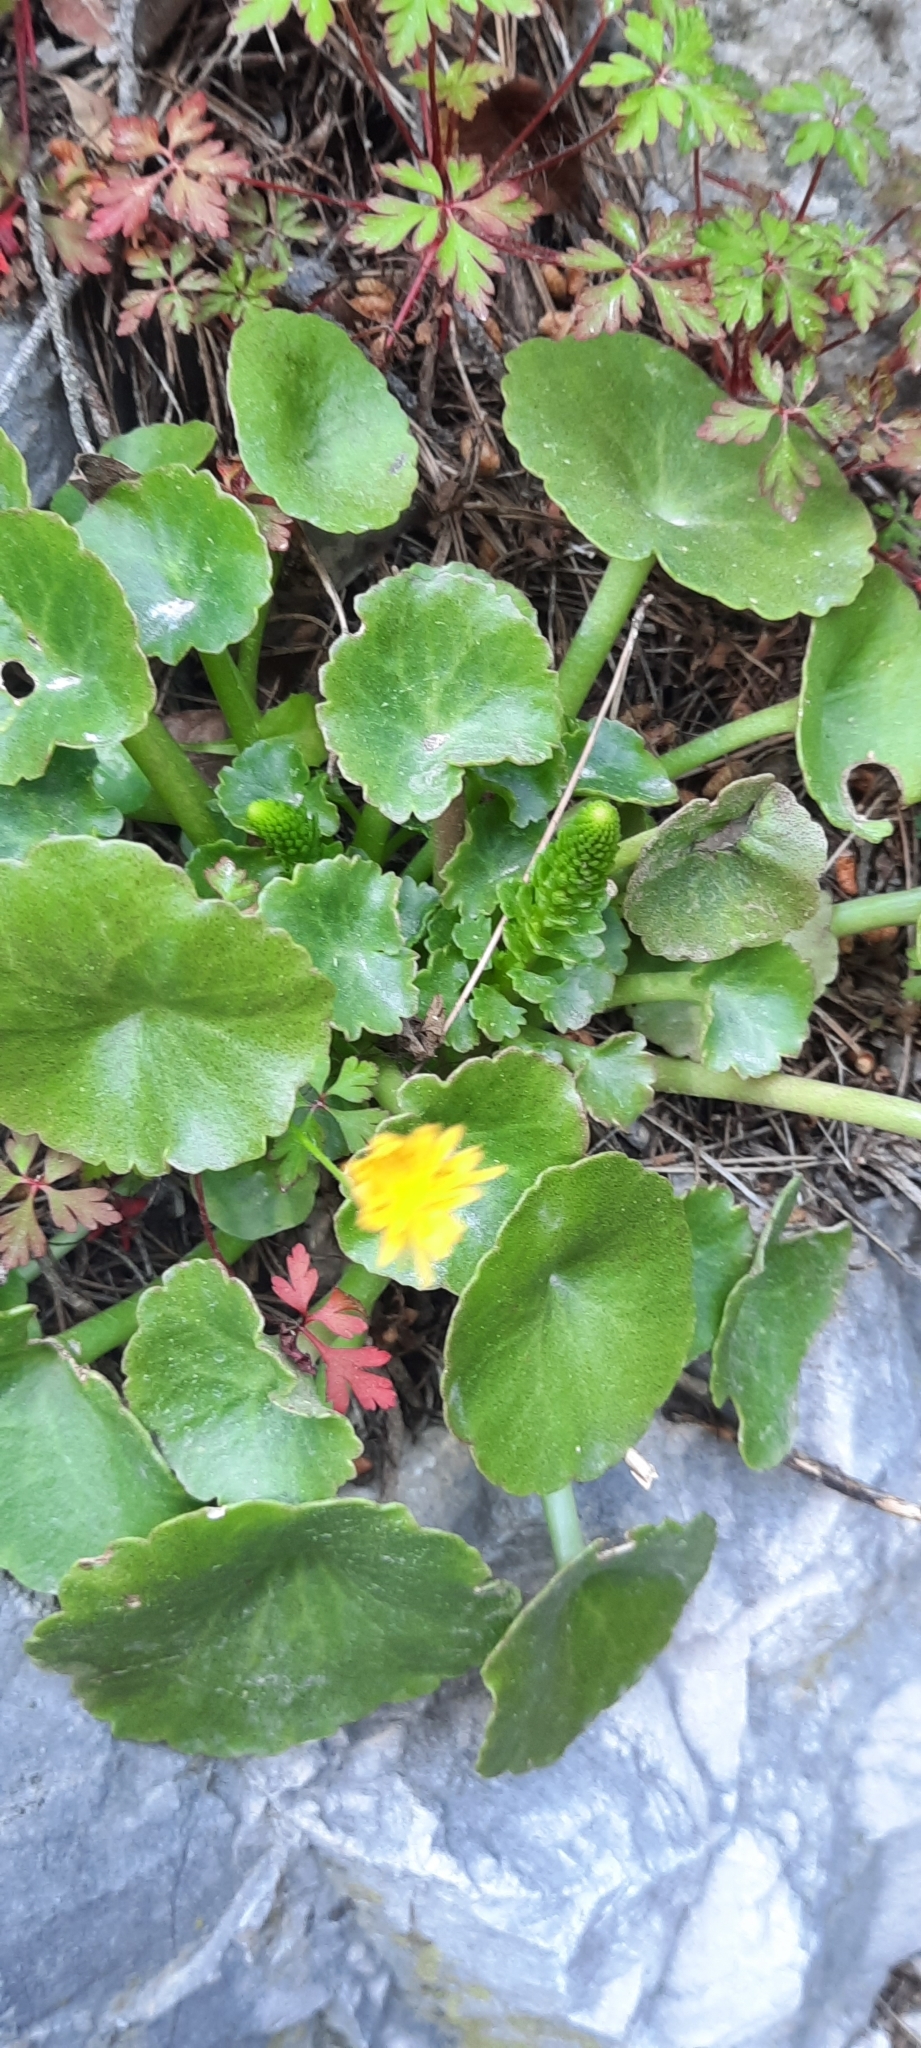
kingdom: Plantae
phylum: Tracheophyta
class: Magnoliopsida
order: Saxifragales
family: Crassulaceae
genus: Umbilicus
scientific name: Umbilicus rupestris
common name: Navelwort
